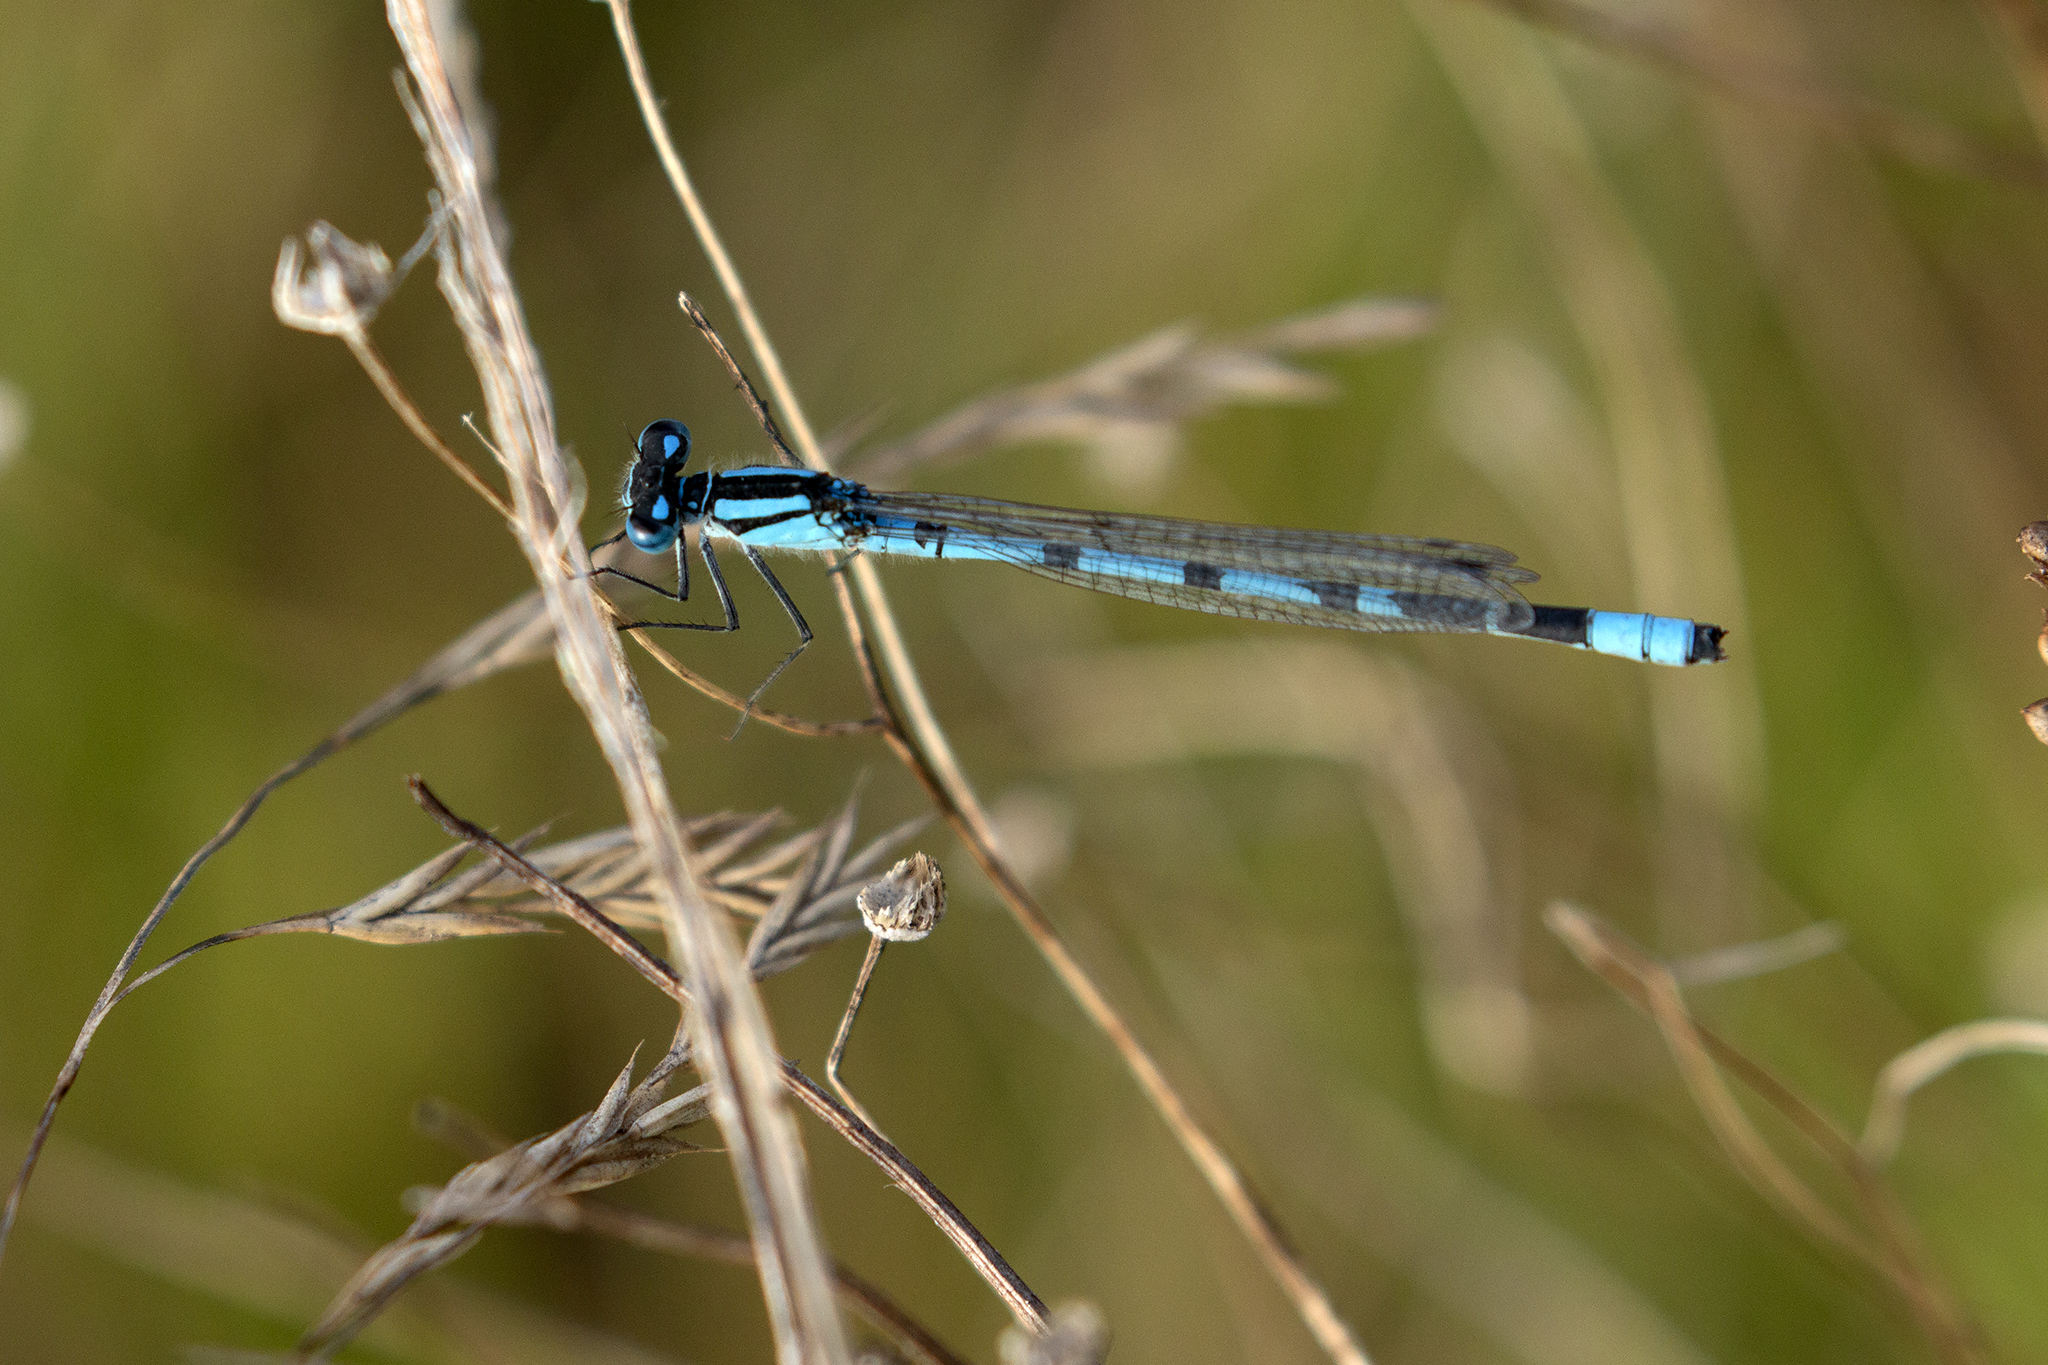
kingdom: Animalia
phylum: Arthropoda
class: Insecta
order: Odonata
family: Coenagrionidae
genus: Enallagma
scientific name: Enallagma cyathigerum
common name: Common blue damselfly
